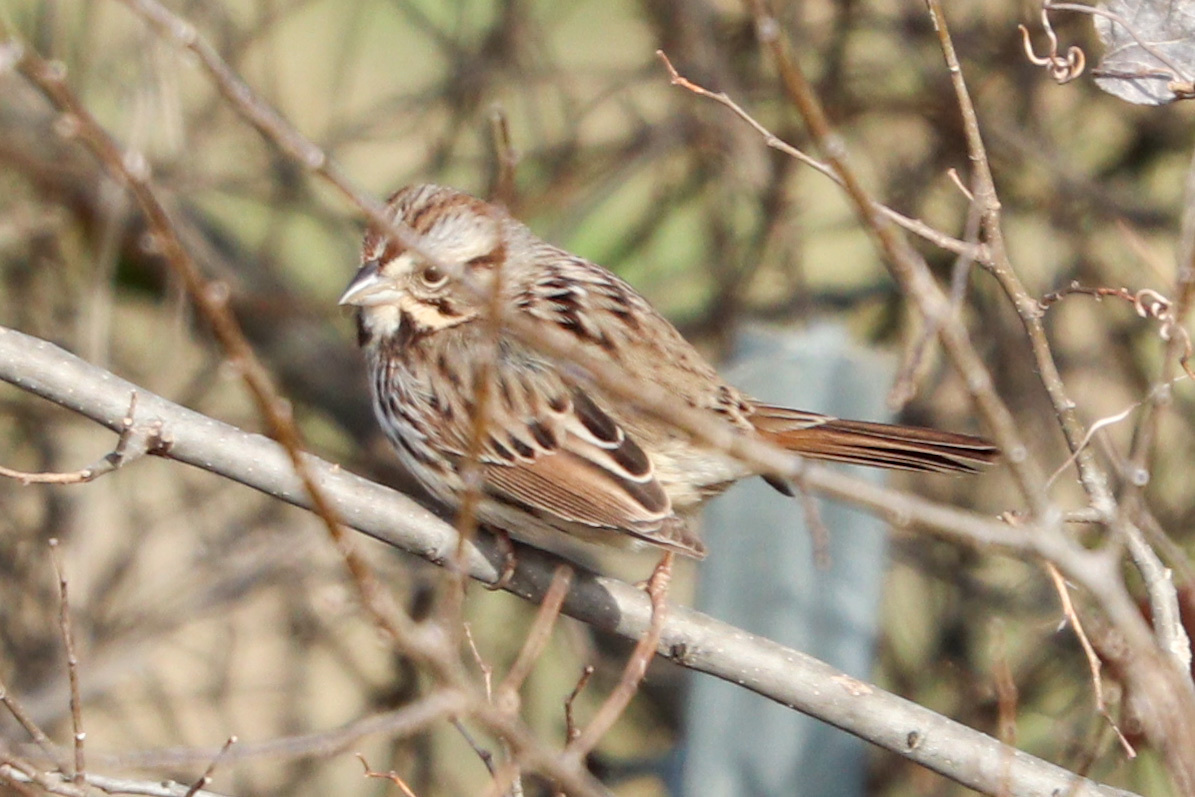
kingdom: Animalia
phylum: Chordata
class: Aves
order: Passeriformes
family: Passerellidae
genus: Melospiza
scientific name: Melospiza melodia
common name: Song sparrow
